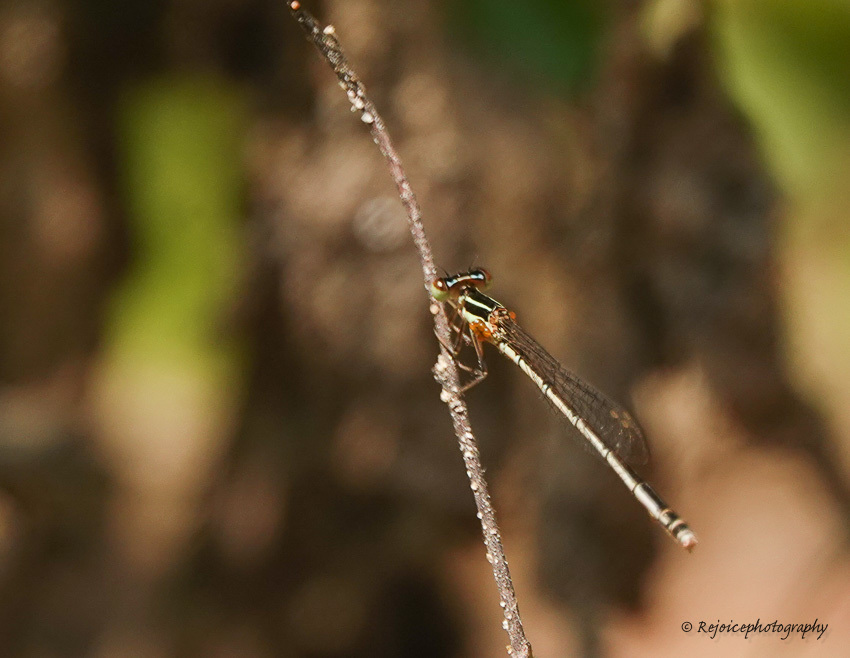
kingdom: Animalia
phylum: Arthropoda
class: Insecta
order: Odonata
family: Coenagrionidae
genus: Agriocnemis
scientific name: Agriocnemis lacteola
